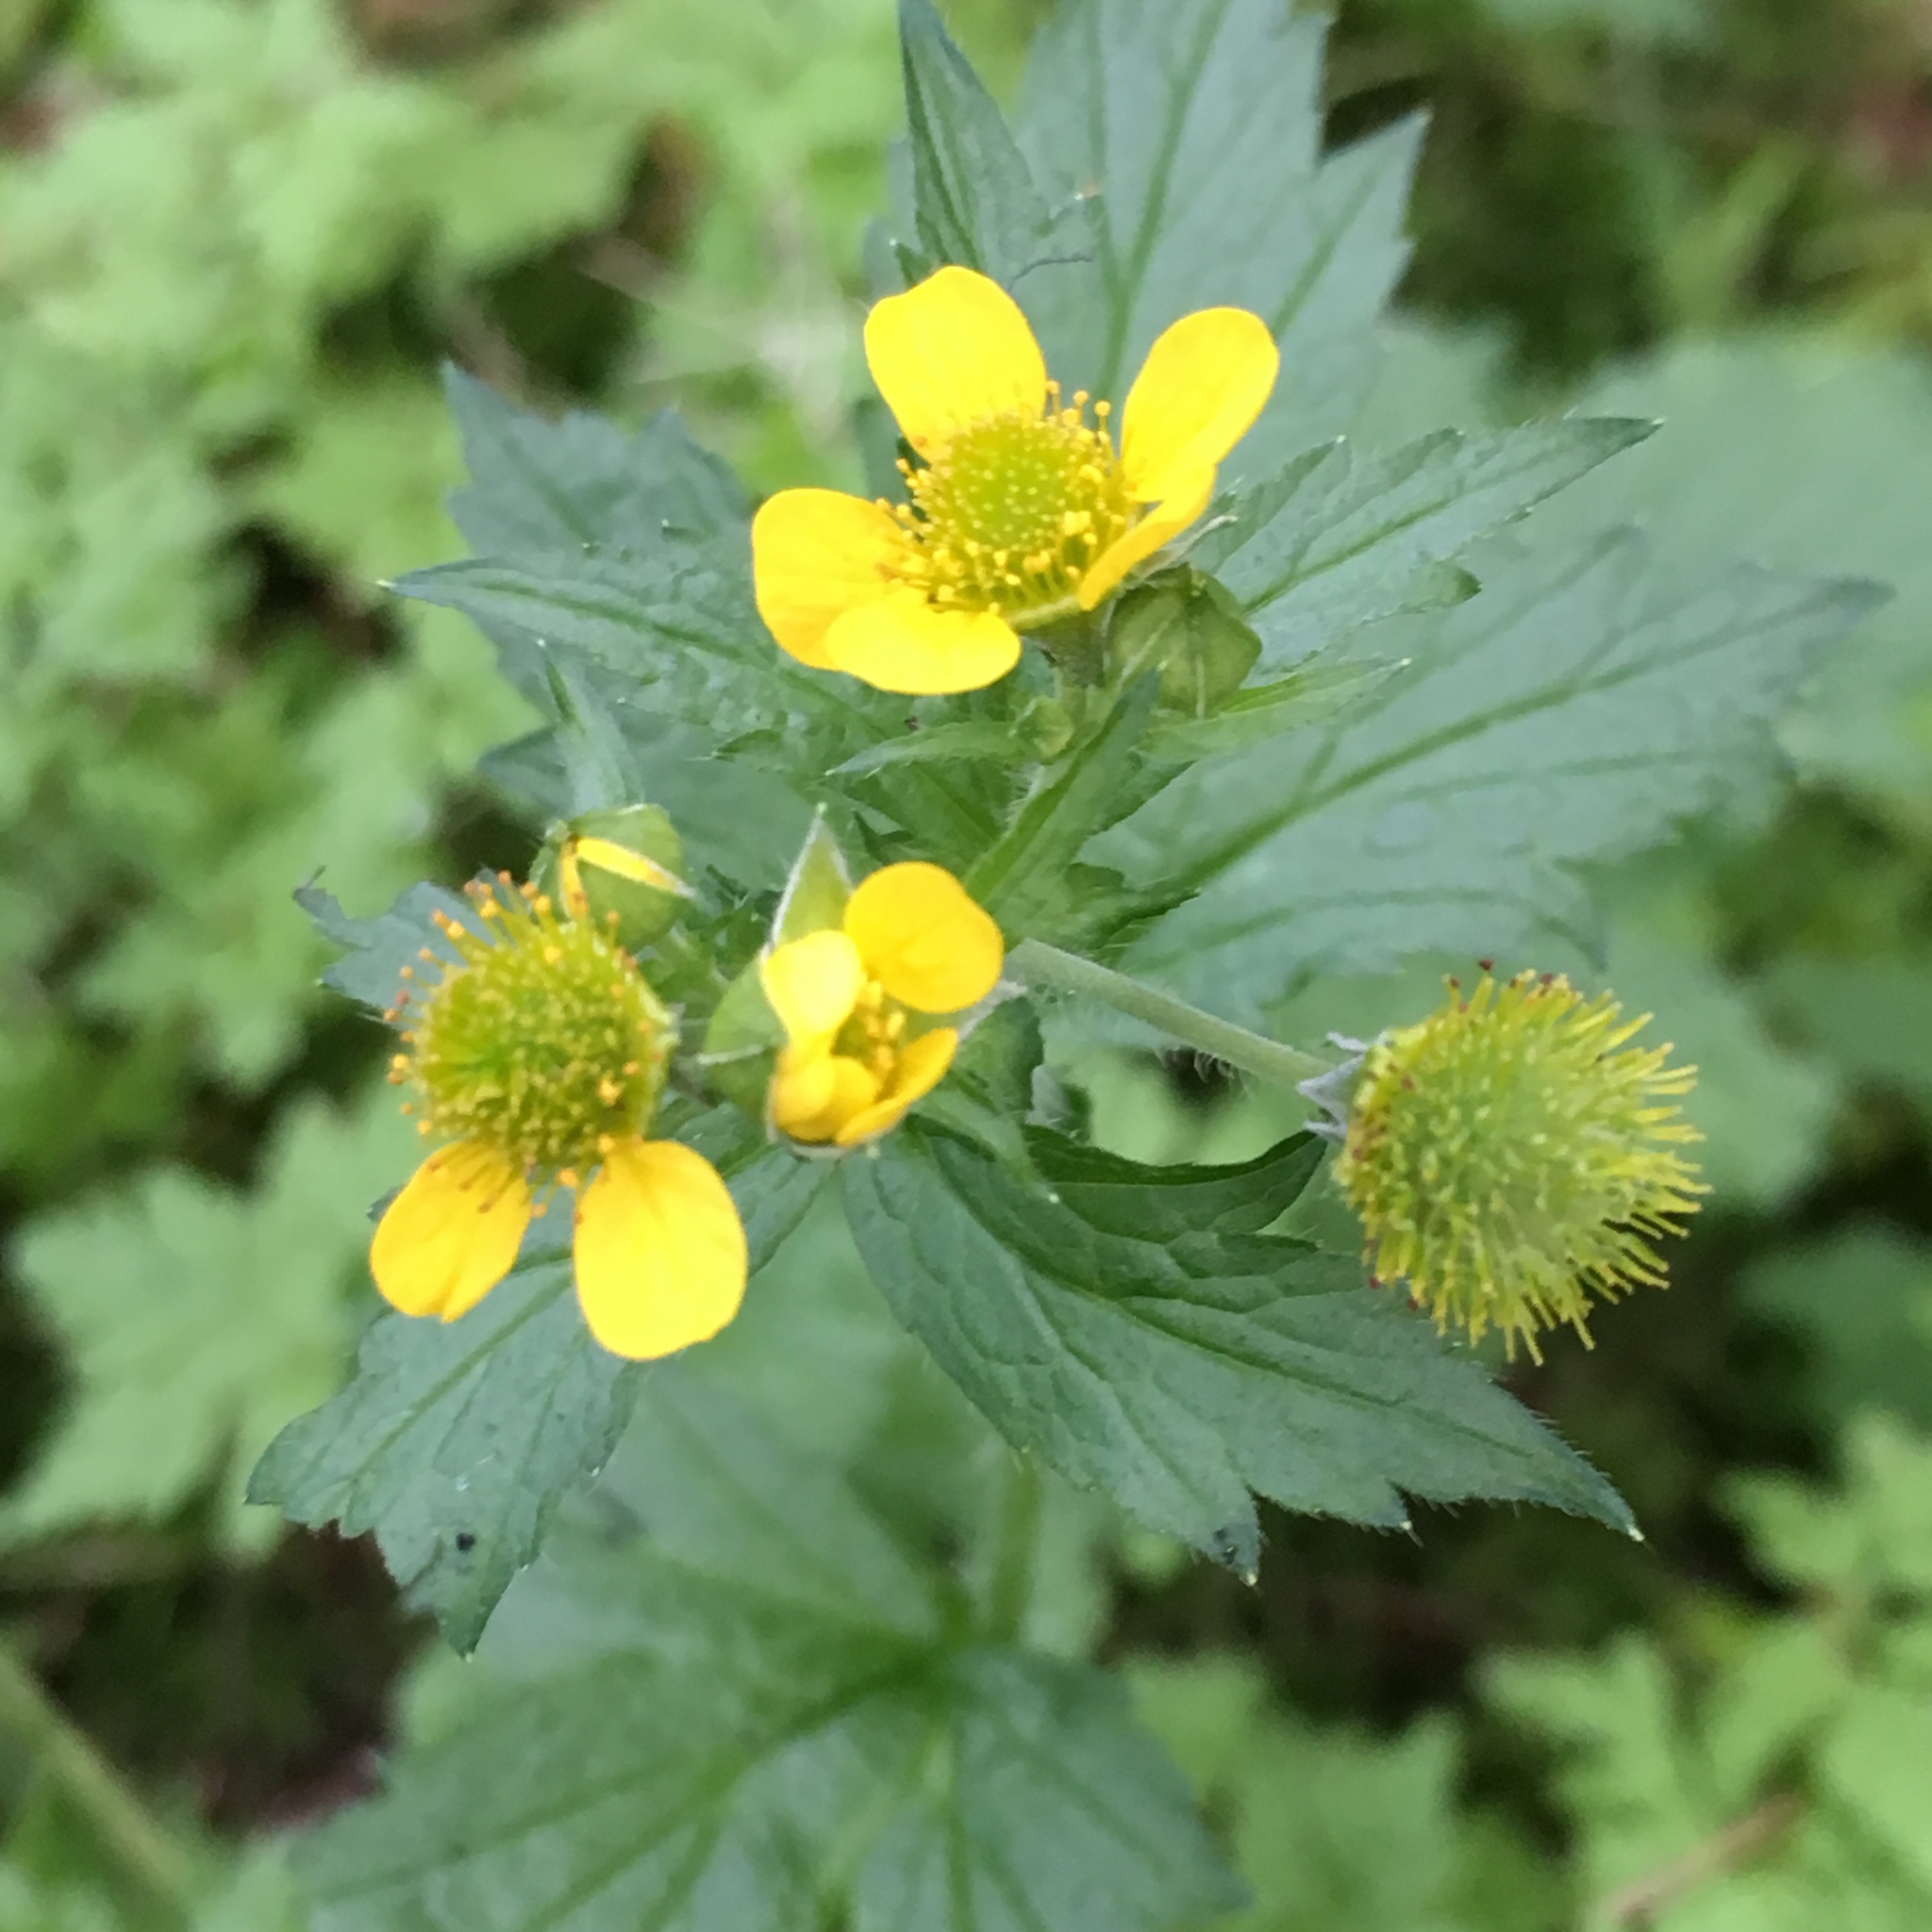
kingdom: Plantae
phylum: Tracheophyta
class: Magnoliopsida
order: Rosales
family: Rosaceae
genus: Geum
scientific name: Geum macrophyllum
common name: Large-leaved avens
